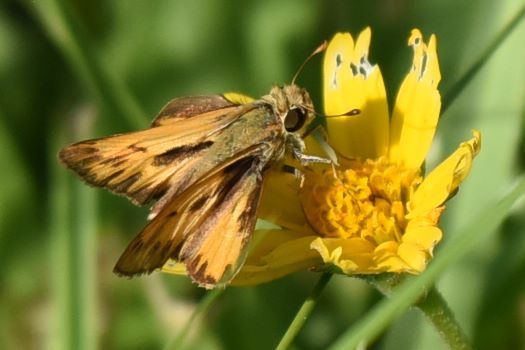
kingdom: Animalia
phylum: Arthropoda
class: Insecta
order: Lepidoptera
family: Hesperiidae
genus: Hylephila
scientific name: Hylephila phyleus
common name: Fiery skipper
